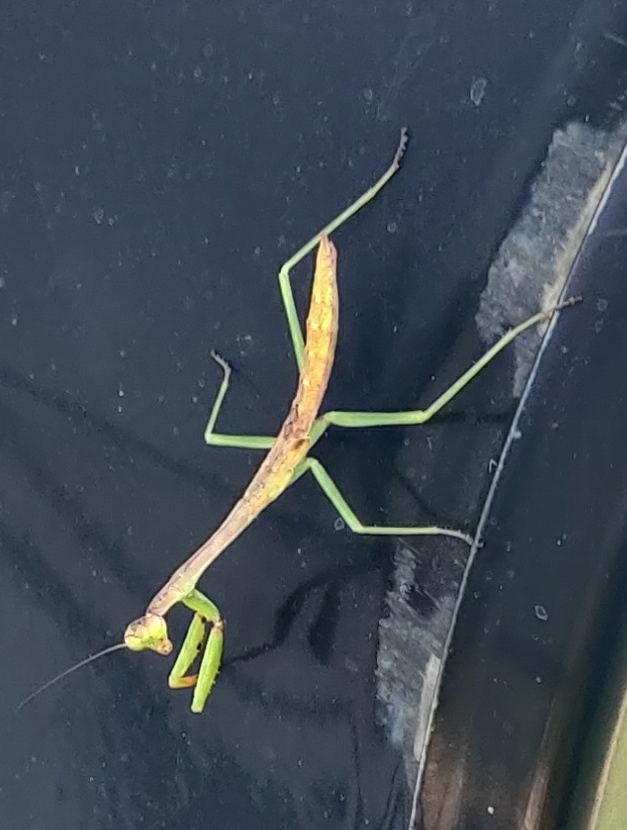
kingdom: Animalia
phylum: Arthropoda
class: Insecta
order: Mantodea
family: Mantidae
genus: Stagmomantis
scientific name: Stagmomantis carolina
